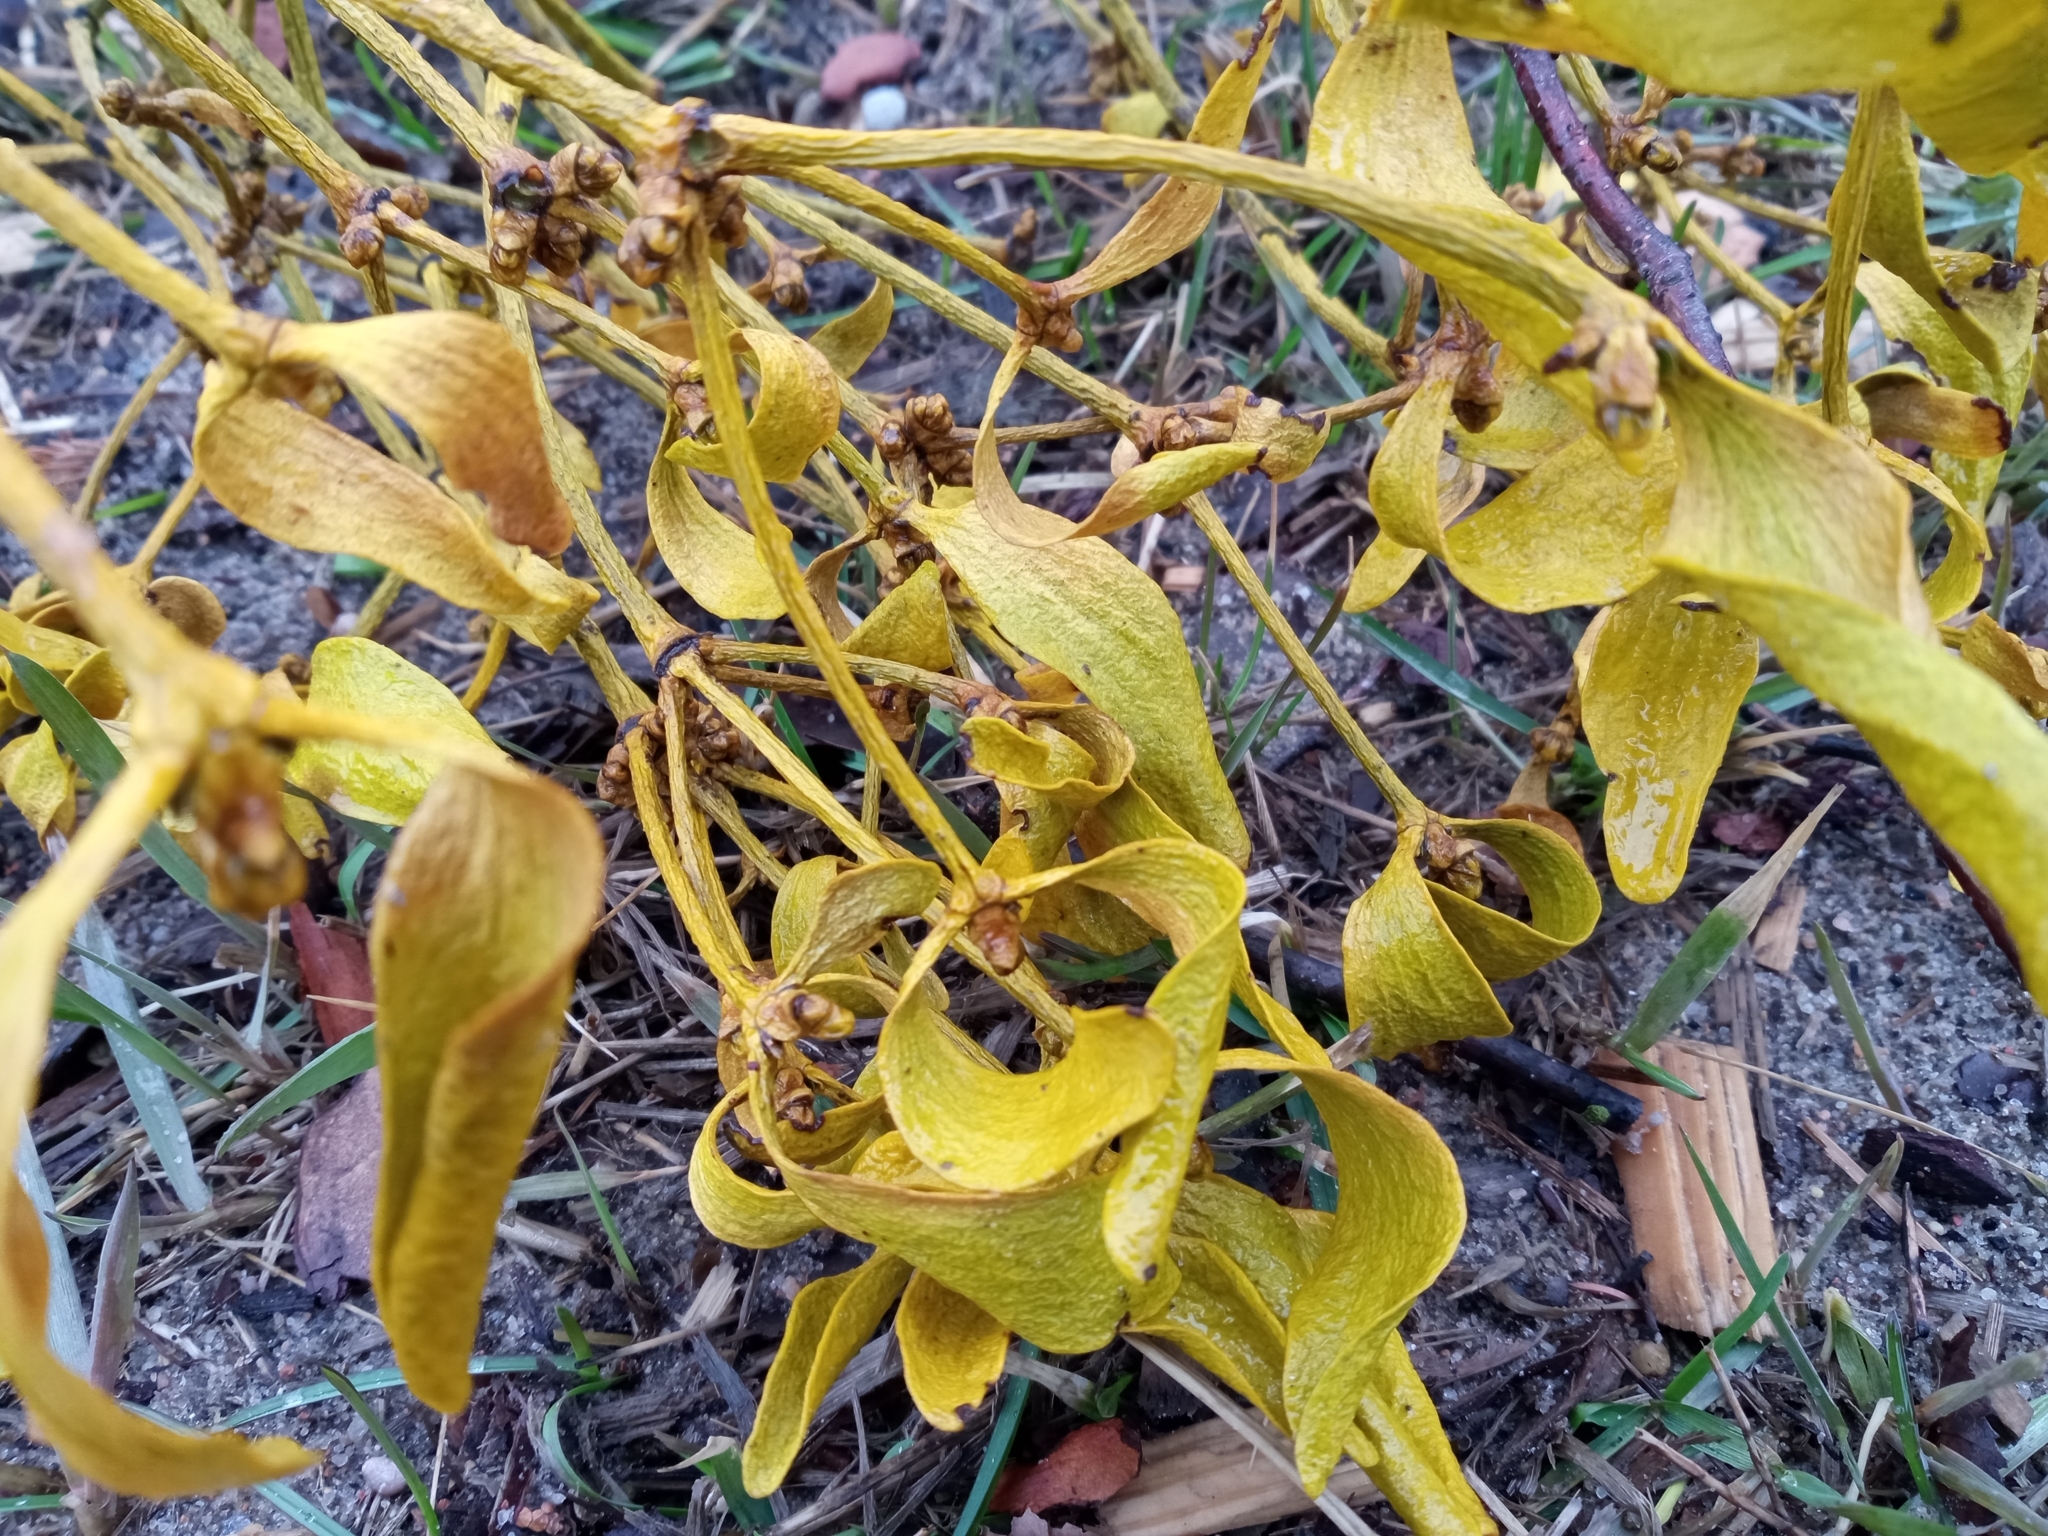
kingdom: Plantae
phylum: Tracheophyta
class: Magnoliopsida
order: Santalales
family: Viscaceae
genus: Viscum
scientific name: Viscum album
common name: Mistletoe
